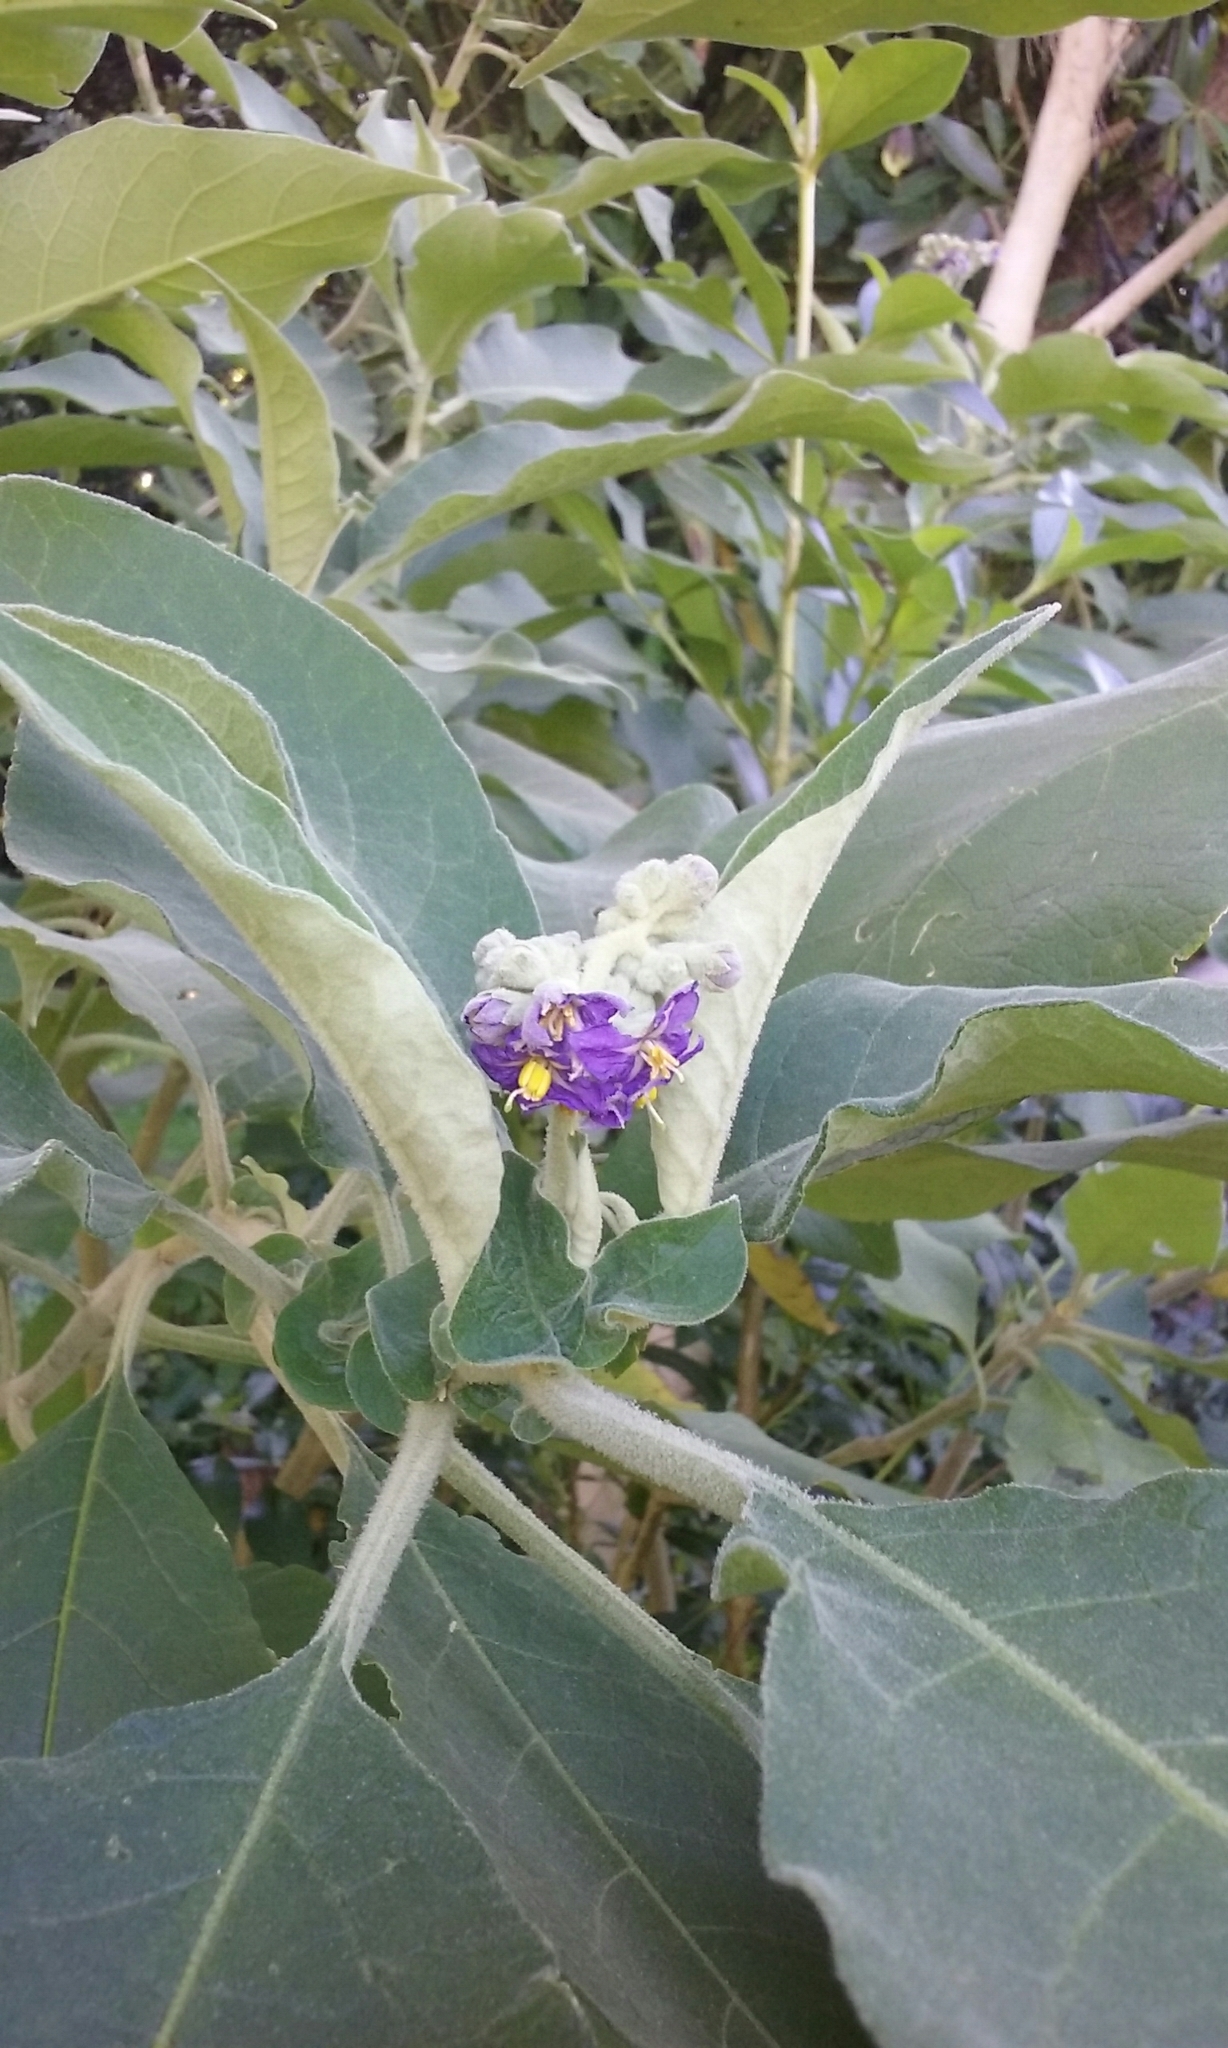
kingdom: Plantae
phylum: Tracheophyta
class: Magnoliopsida
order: Solanales
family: Solanaceae
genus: Solanum
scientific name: Solanum mauritianum
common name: Earleaf nightshade
